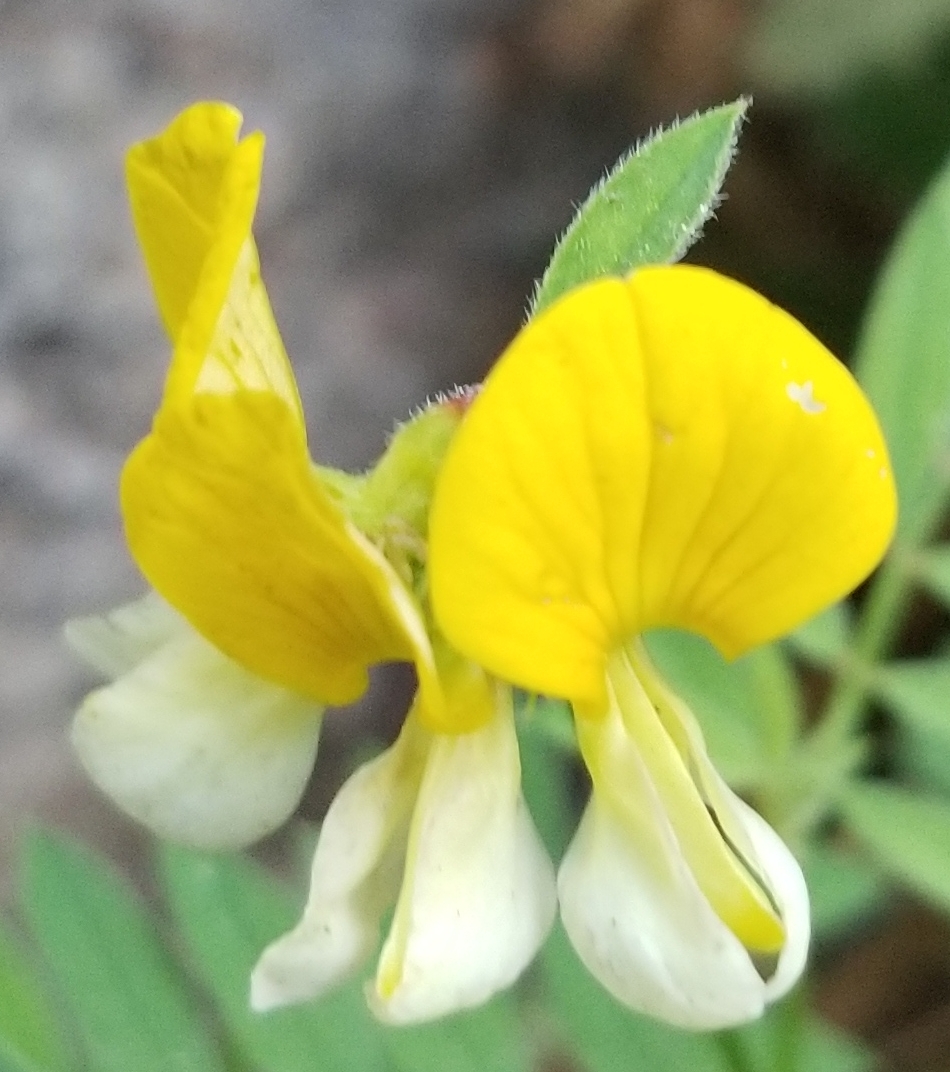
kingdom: Plantae
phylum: Tracheophyta
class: Magnoliopsida
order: Fabales
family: Fabaceae
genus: Hosackia
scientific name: Hosackia oblongifolia
